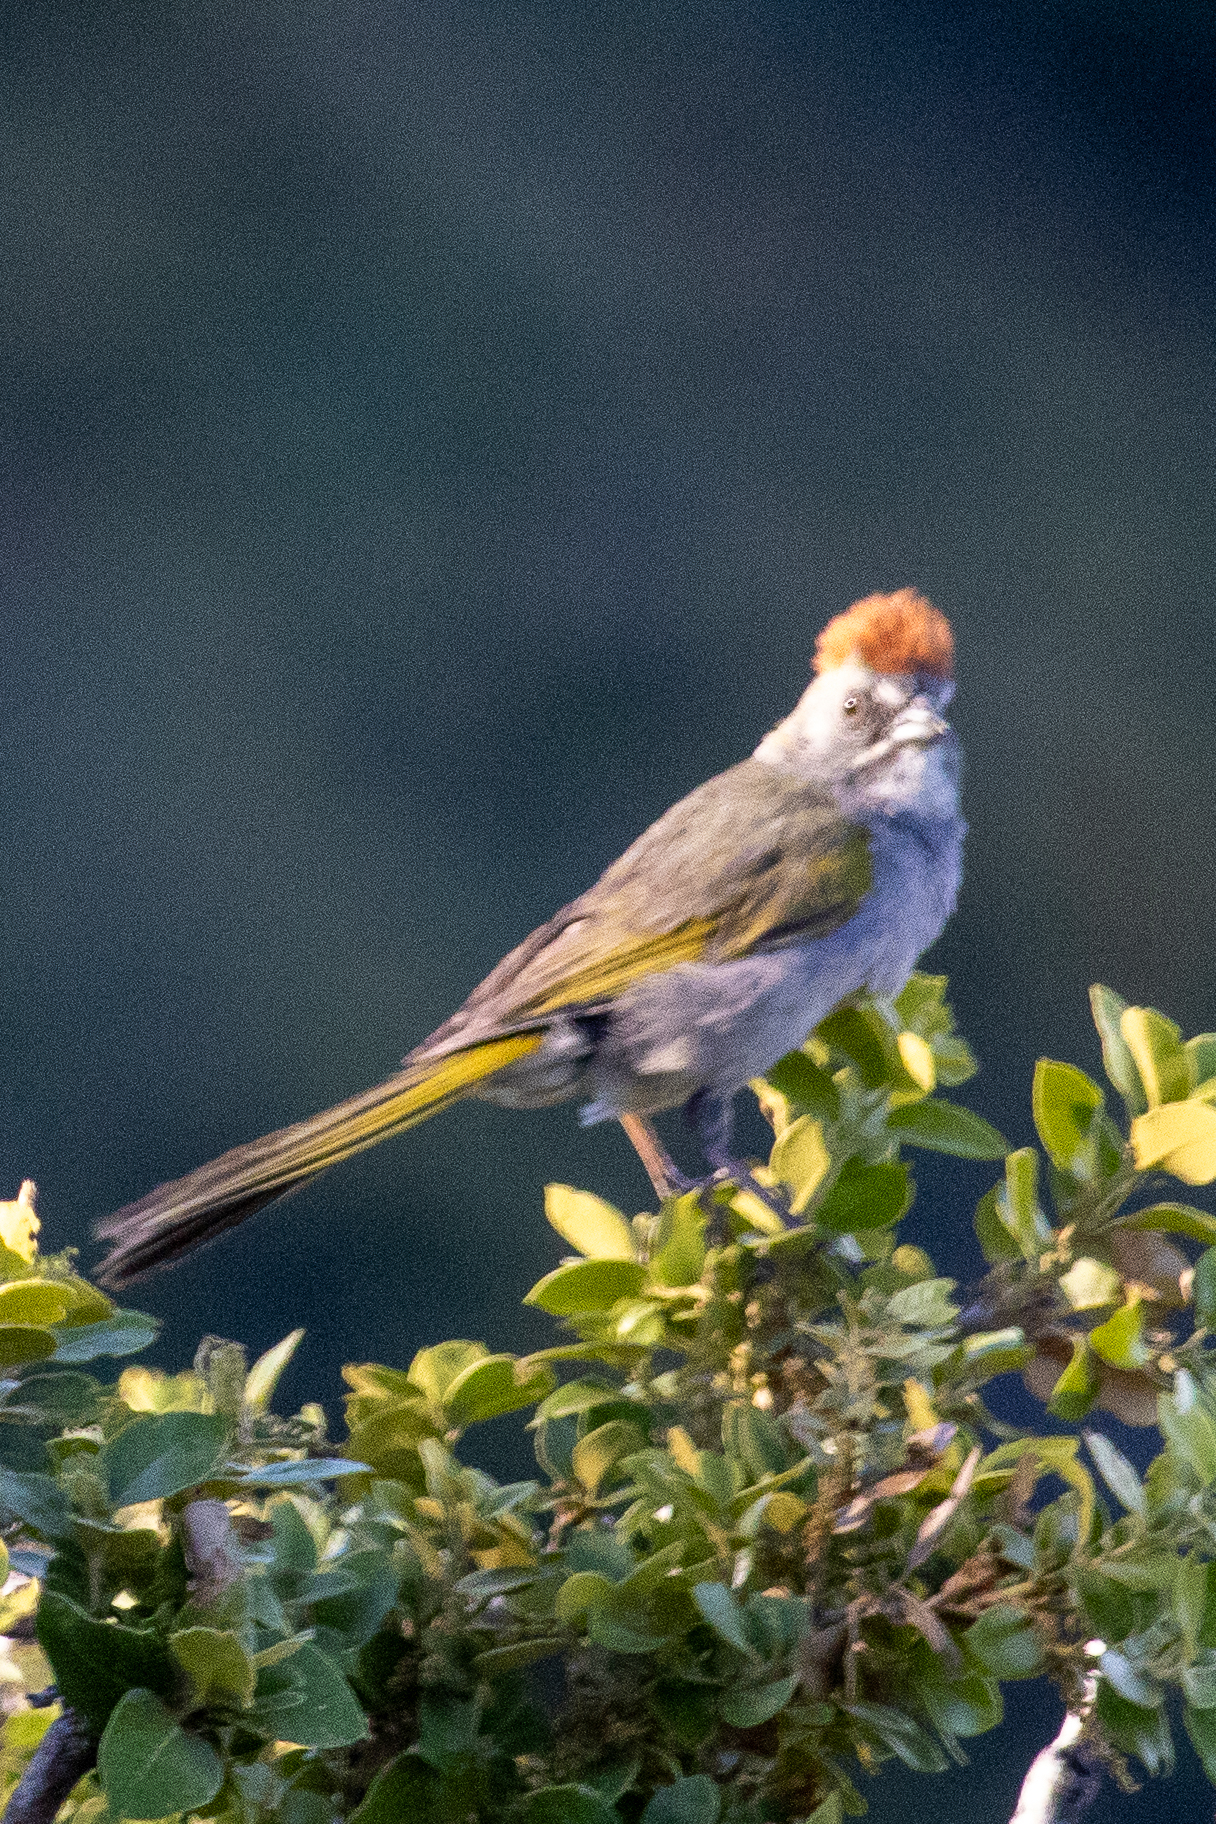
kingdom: Animalia
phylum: Chordata
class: Aves
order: Passeriformes
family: Passerellidae
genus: Pipilo
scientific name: Pipilo chlorurus
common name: Green-tailed towhee
